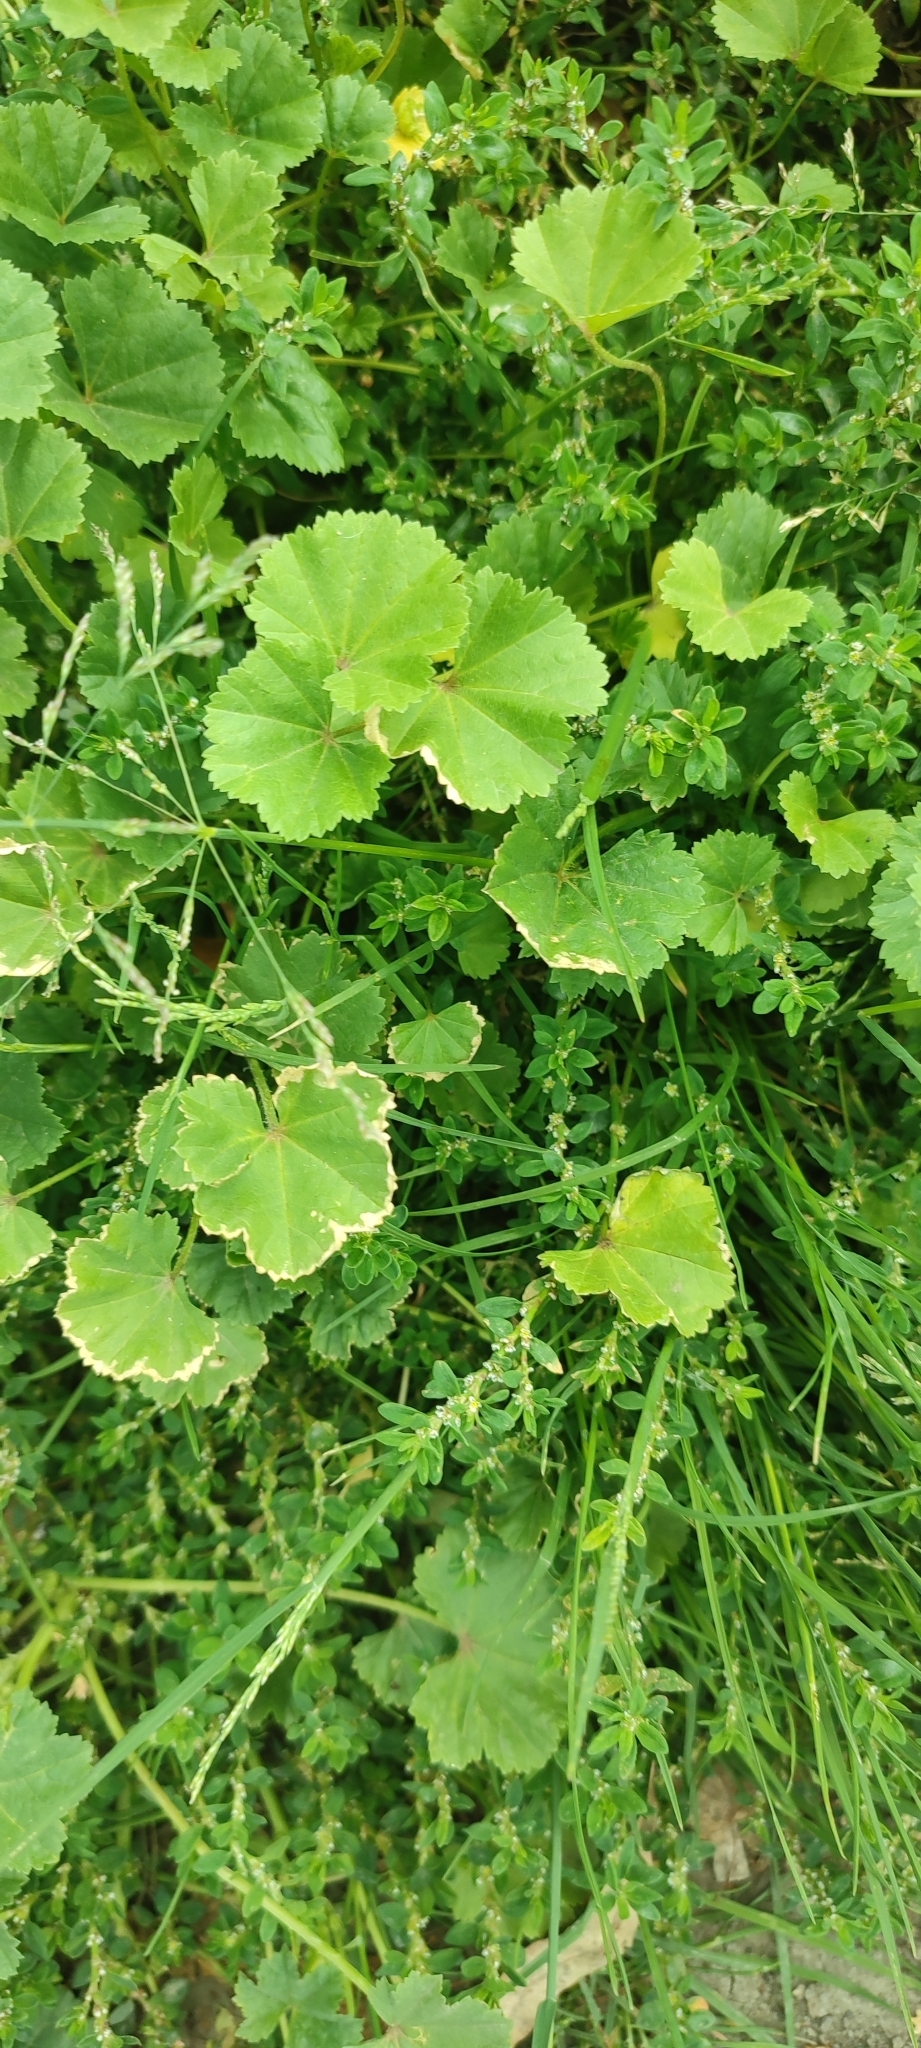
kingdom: Plantae
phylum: Tracheophyta
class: Magnoliopsida
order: Malvales
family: Malvaceae
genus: Malva
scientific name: Malva pusilla
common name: Small mallow
